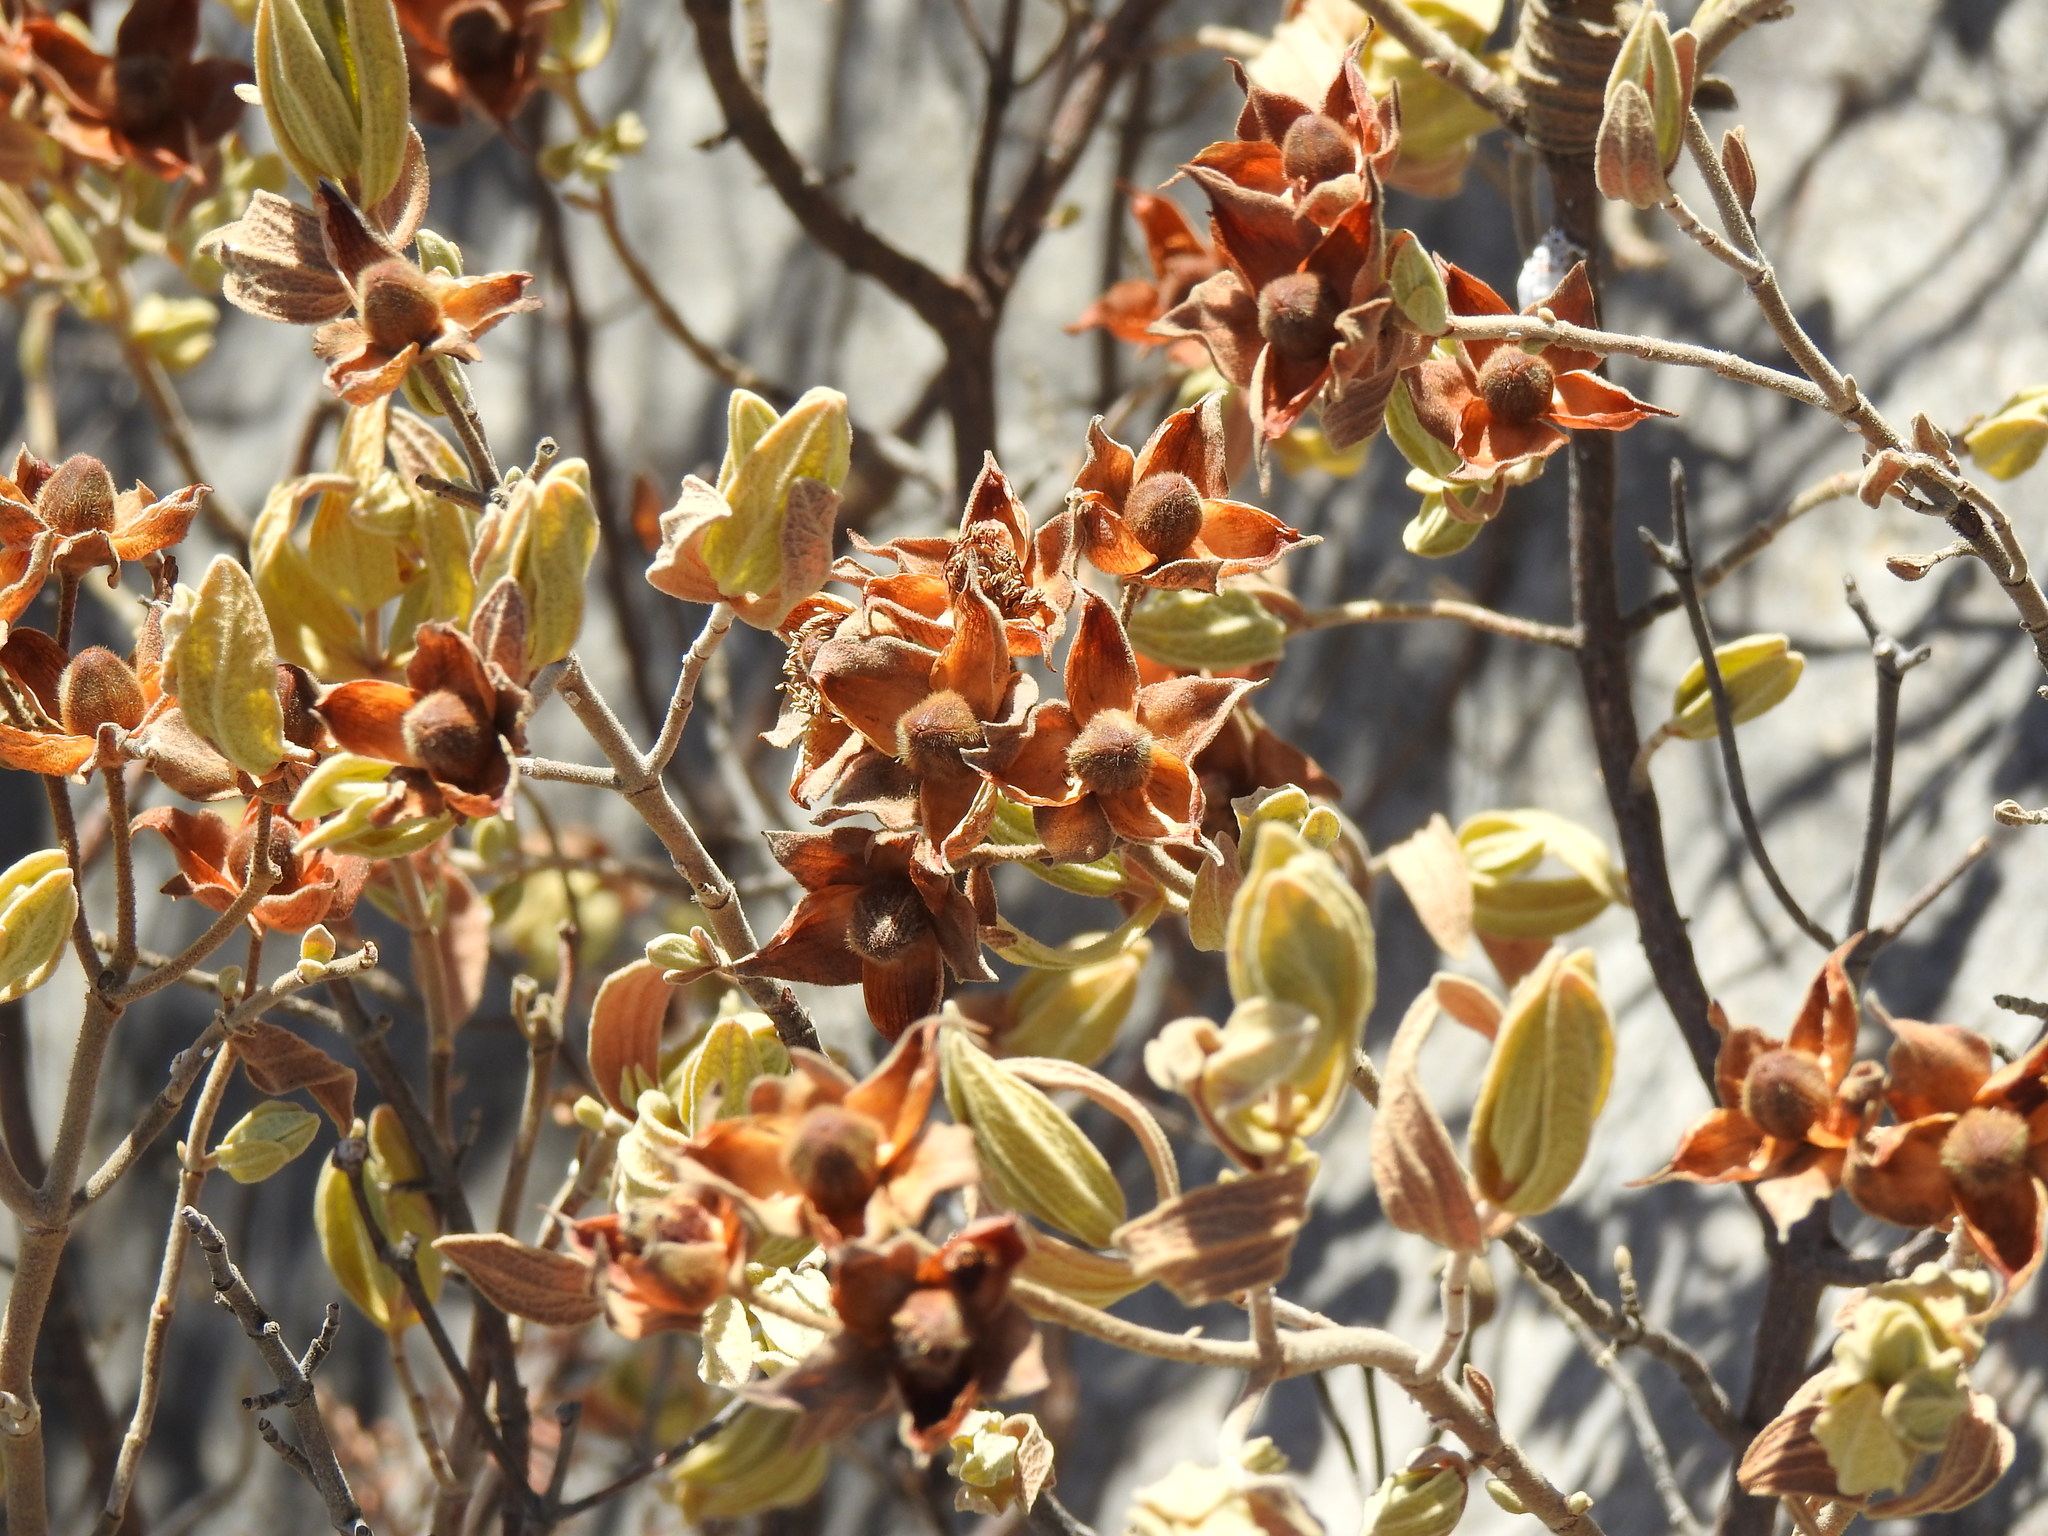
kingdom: Plantae
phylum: Tracheophyta
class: Magnoliopsida
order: Malvales
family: Cistaceae
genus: Cistus
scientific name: Cistus albidus
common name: White-leaf rock-rose
